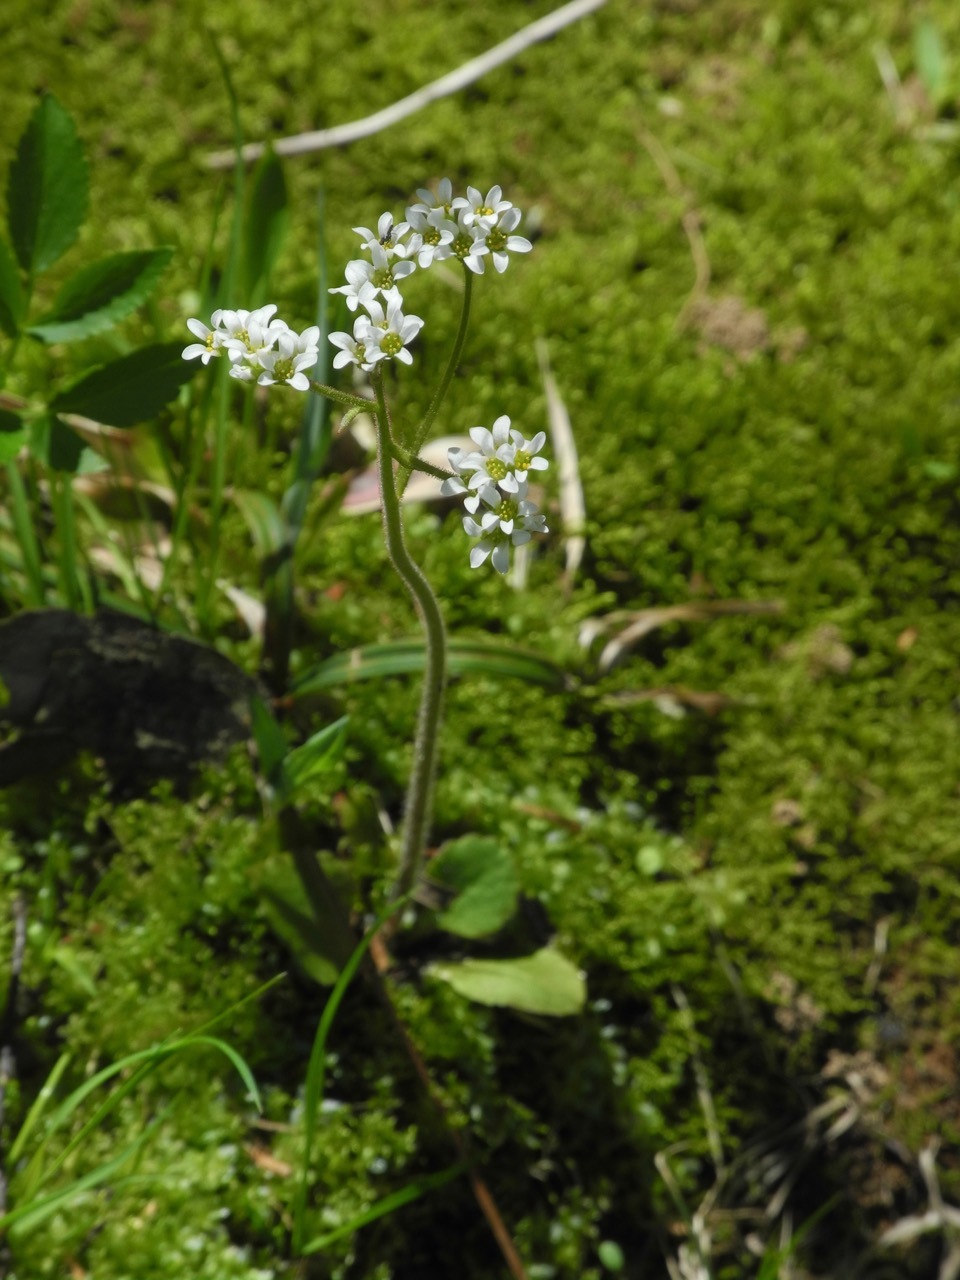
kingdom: Plantae
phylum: Tracheophyta
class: Magnoliopsida
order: Saxifragales
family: Saxifragaceae
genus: Micranthes
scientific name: Micranthes virginiensis
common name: Early saxifrage
